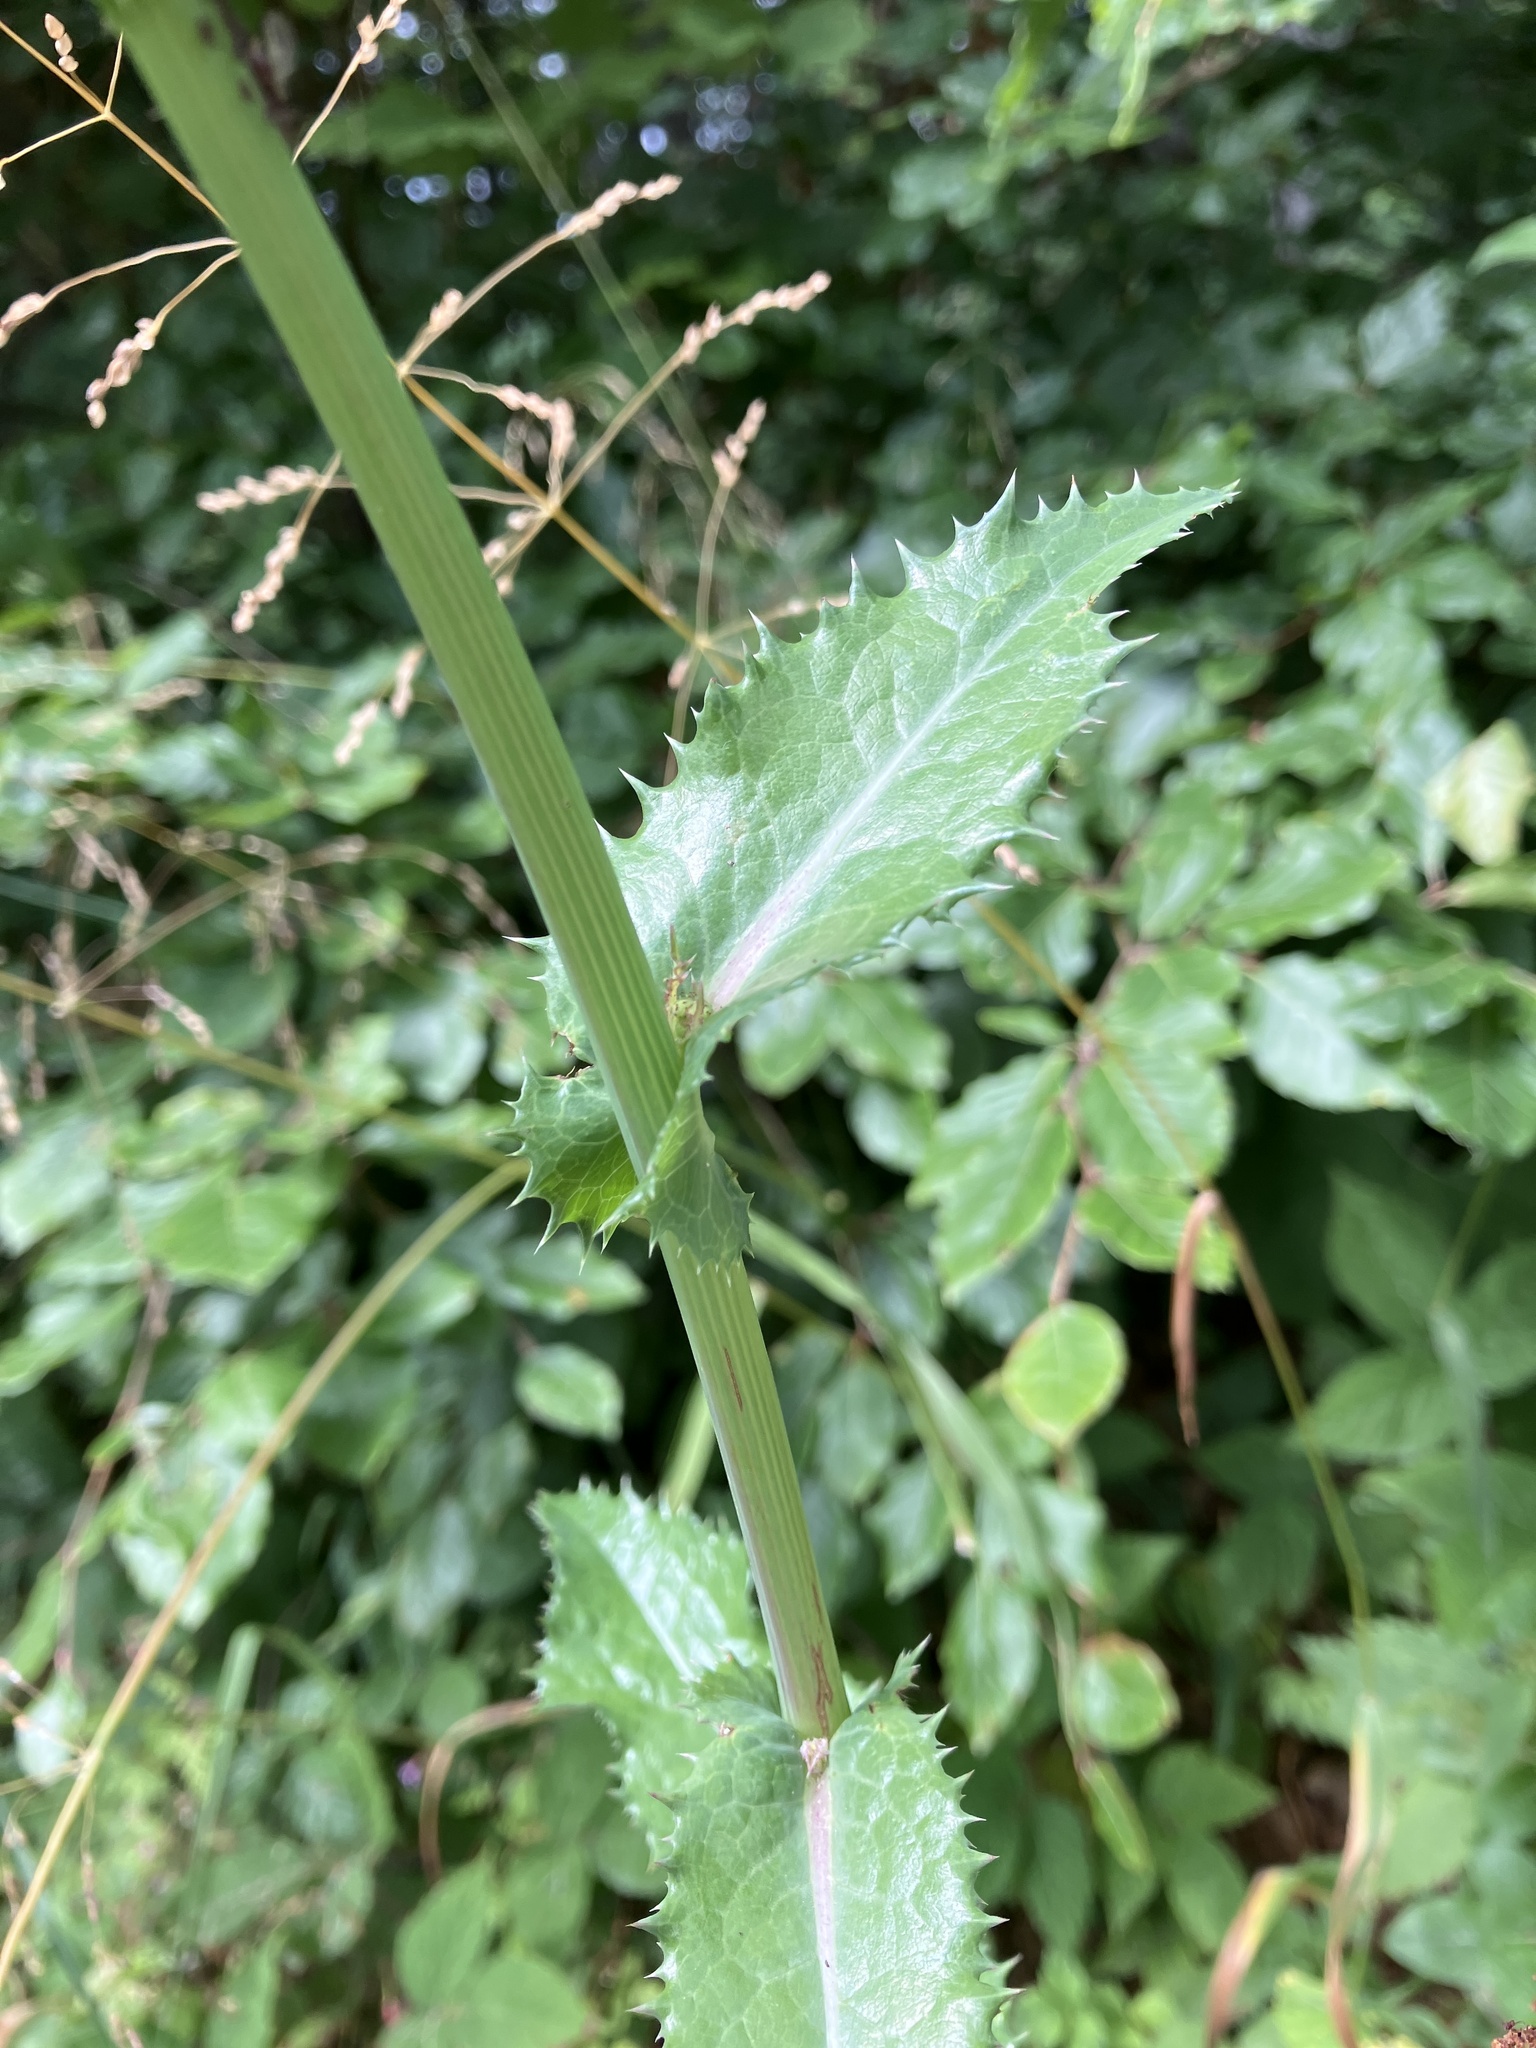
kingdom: Plantae
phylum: Tracheophyta
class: Magnoliopsida
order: Asterales
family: Asteraceae
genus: Sonchus
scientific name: Sonchus asper
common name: Prickly sow-thistle
